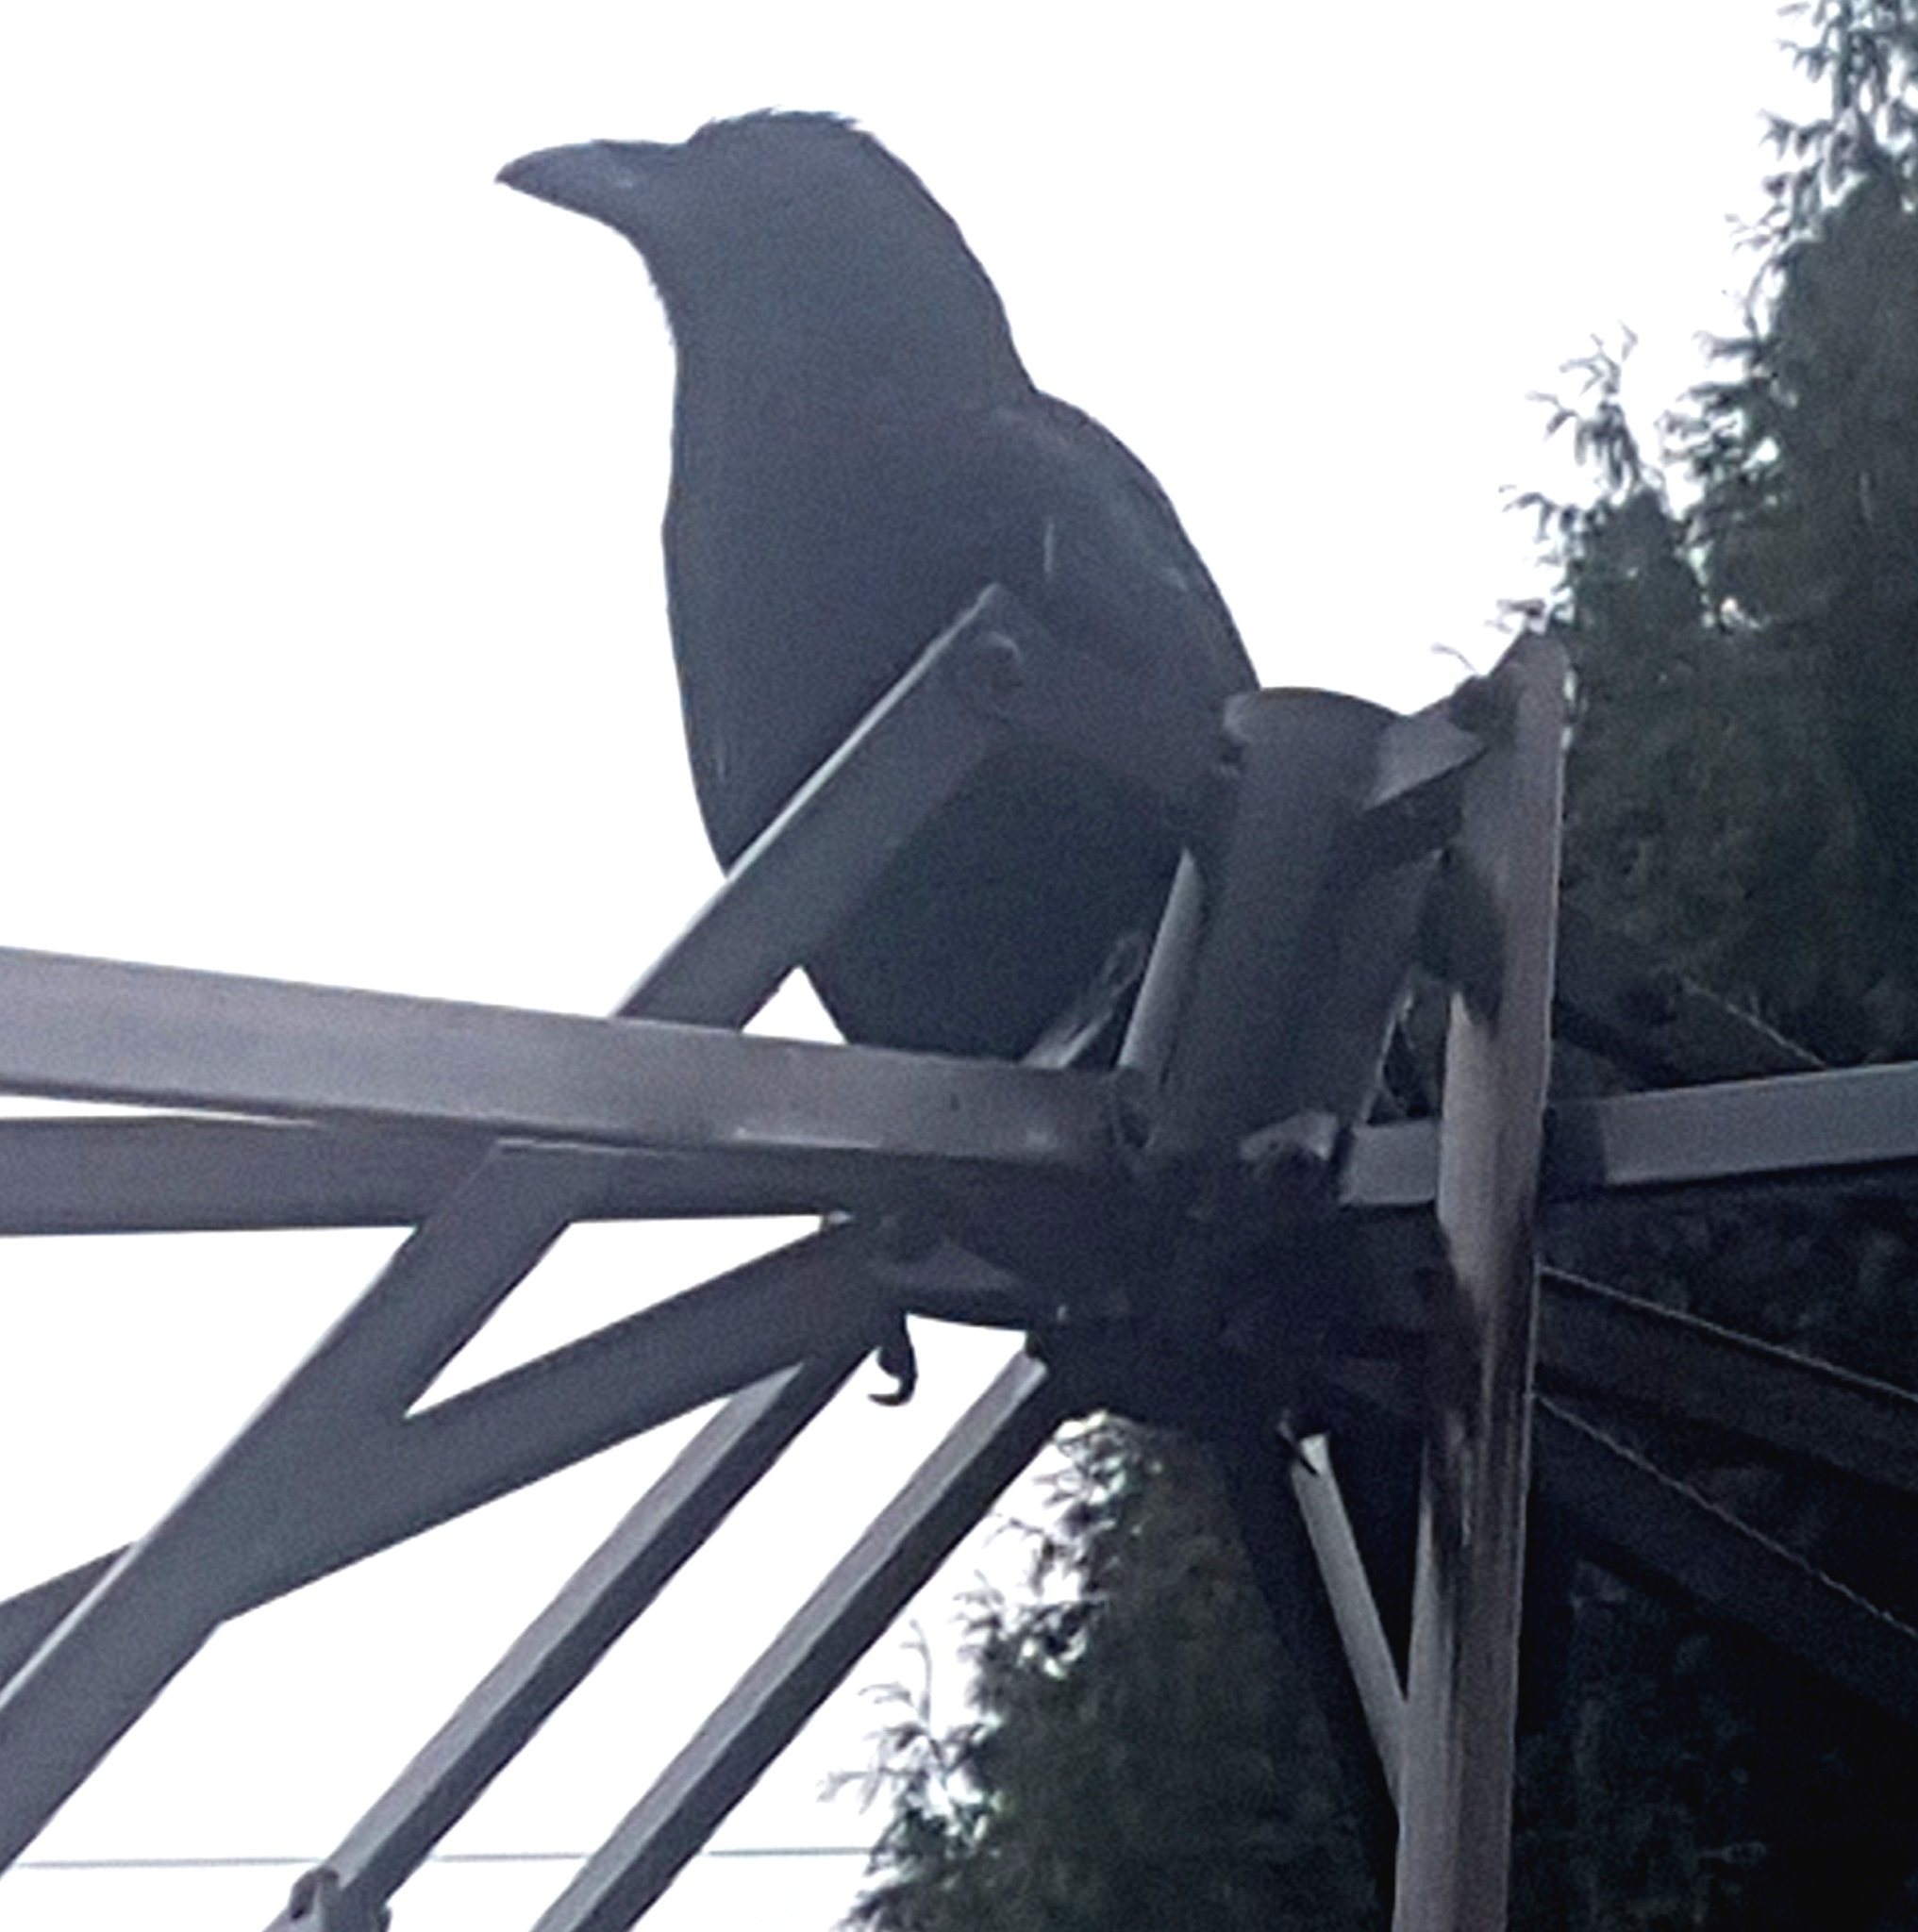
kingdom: Animalia
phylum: Chordata
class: Aves
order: Passeriformes
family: Corvidae
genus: Corvus
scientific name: Corvus brachyrhynchos
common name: American crow
